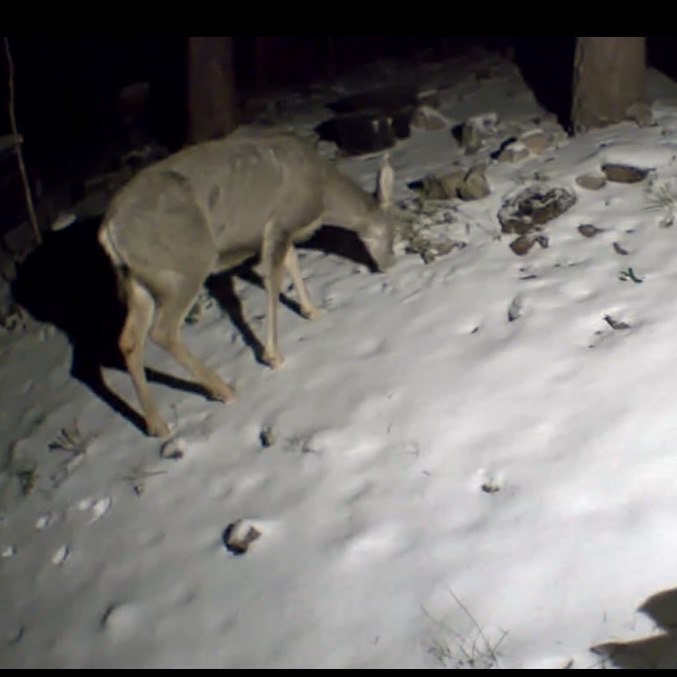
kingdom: Animalia
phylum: Chordata
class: Mammalia
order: Artiodactyla
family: Cervidae
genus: Odocoileus
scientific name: Odocoileus hemionus
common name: Mule deer
